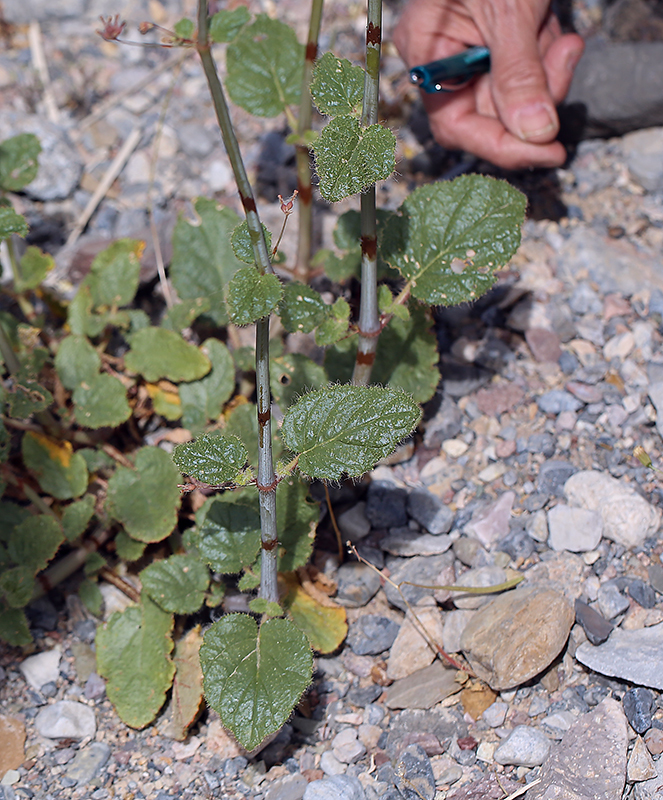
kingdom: Plantae
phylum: Tracheophyta
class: Magnoliopsida
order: Caryophyllales
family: Nyctaginaceae
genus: Anulocaulis
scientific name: Anulocaulis annulatus
